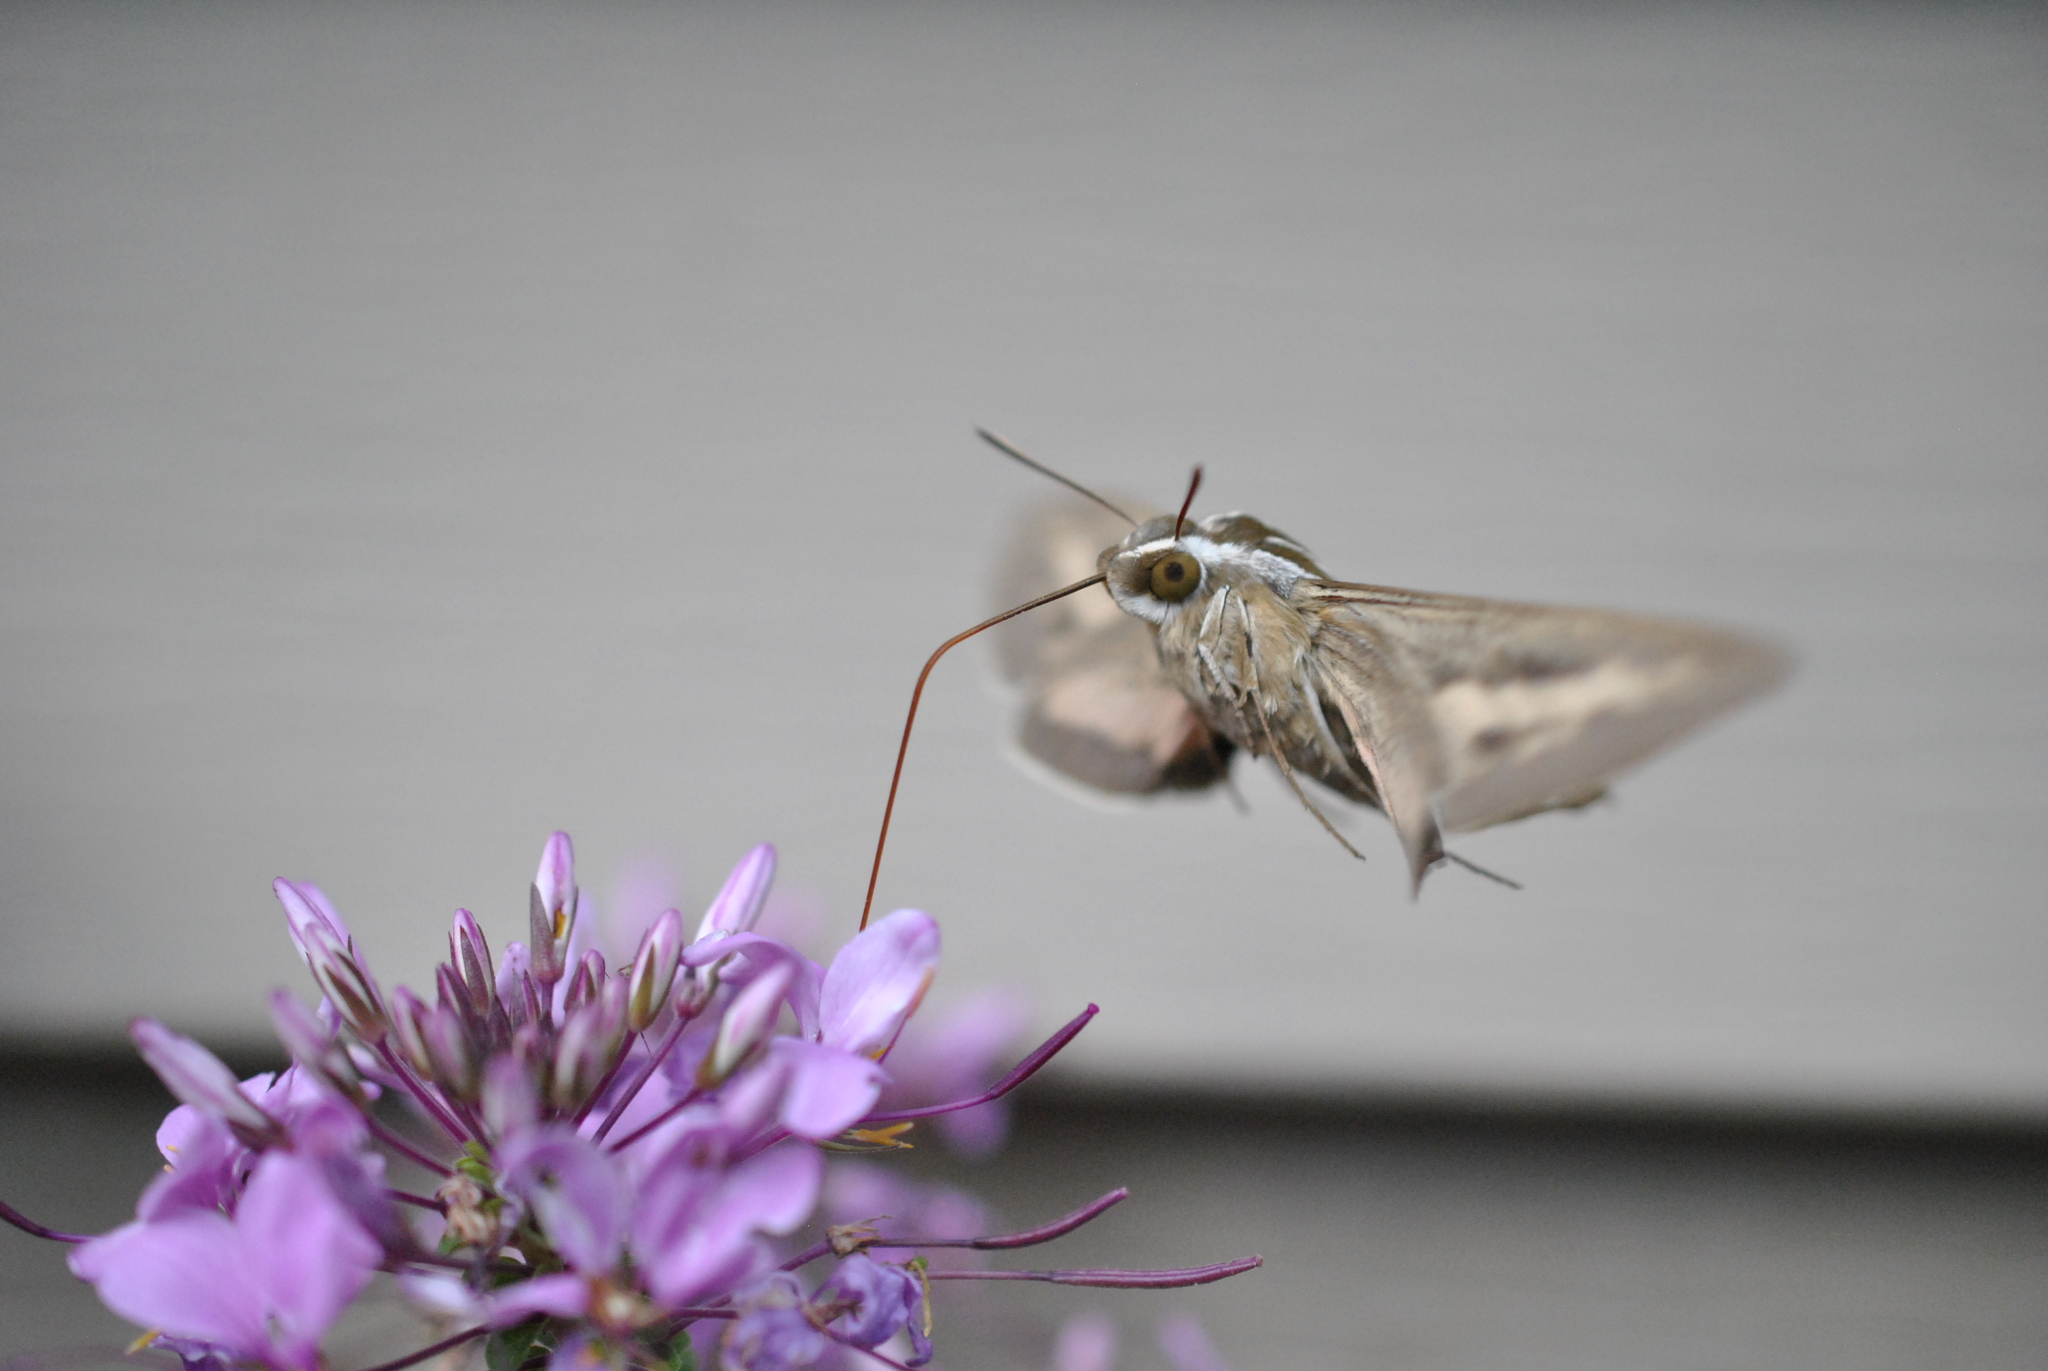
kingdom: Animalia
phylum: Arthropoda
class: Insecta
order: Lepidoptera
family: Sphingidae
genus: Hyles
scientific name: Hyles lineata
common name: White-lined sphinx
